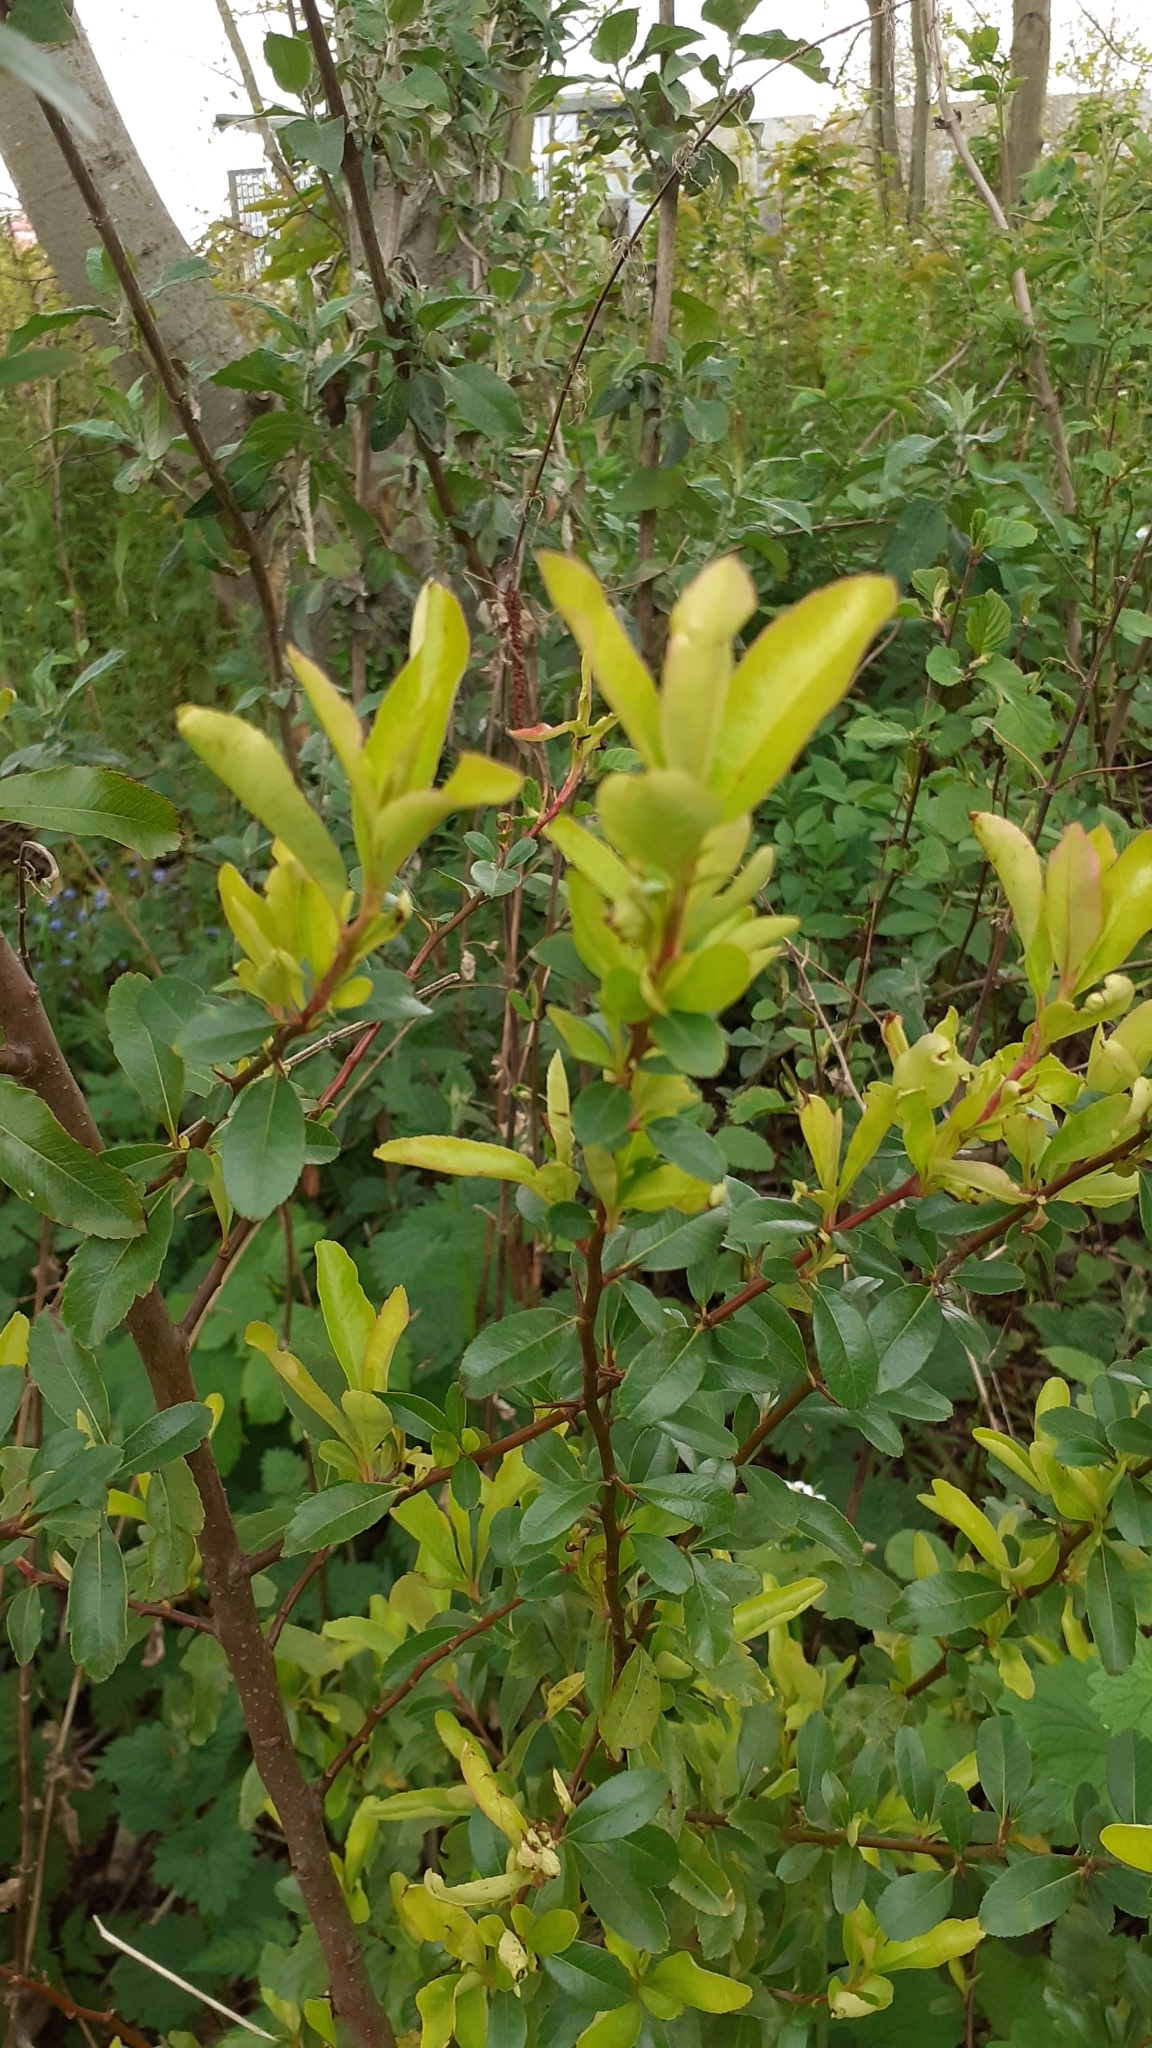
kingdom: Plantae
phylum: Tracheophyta
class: Magnoliopsida
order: Rosales
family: Rosaceae
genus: Pyracantha
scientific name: Pyracantha coccinea
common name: Firethorn
